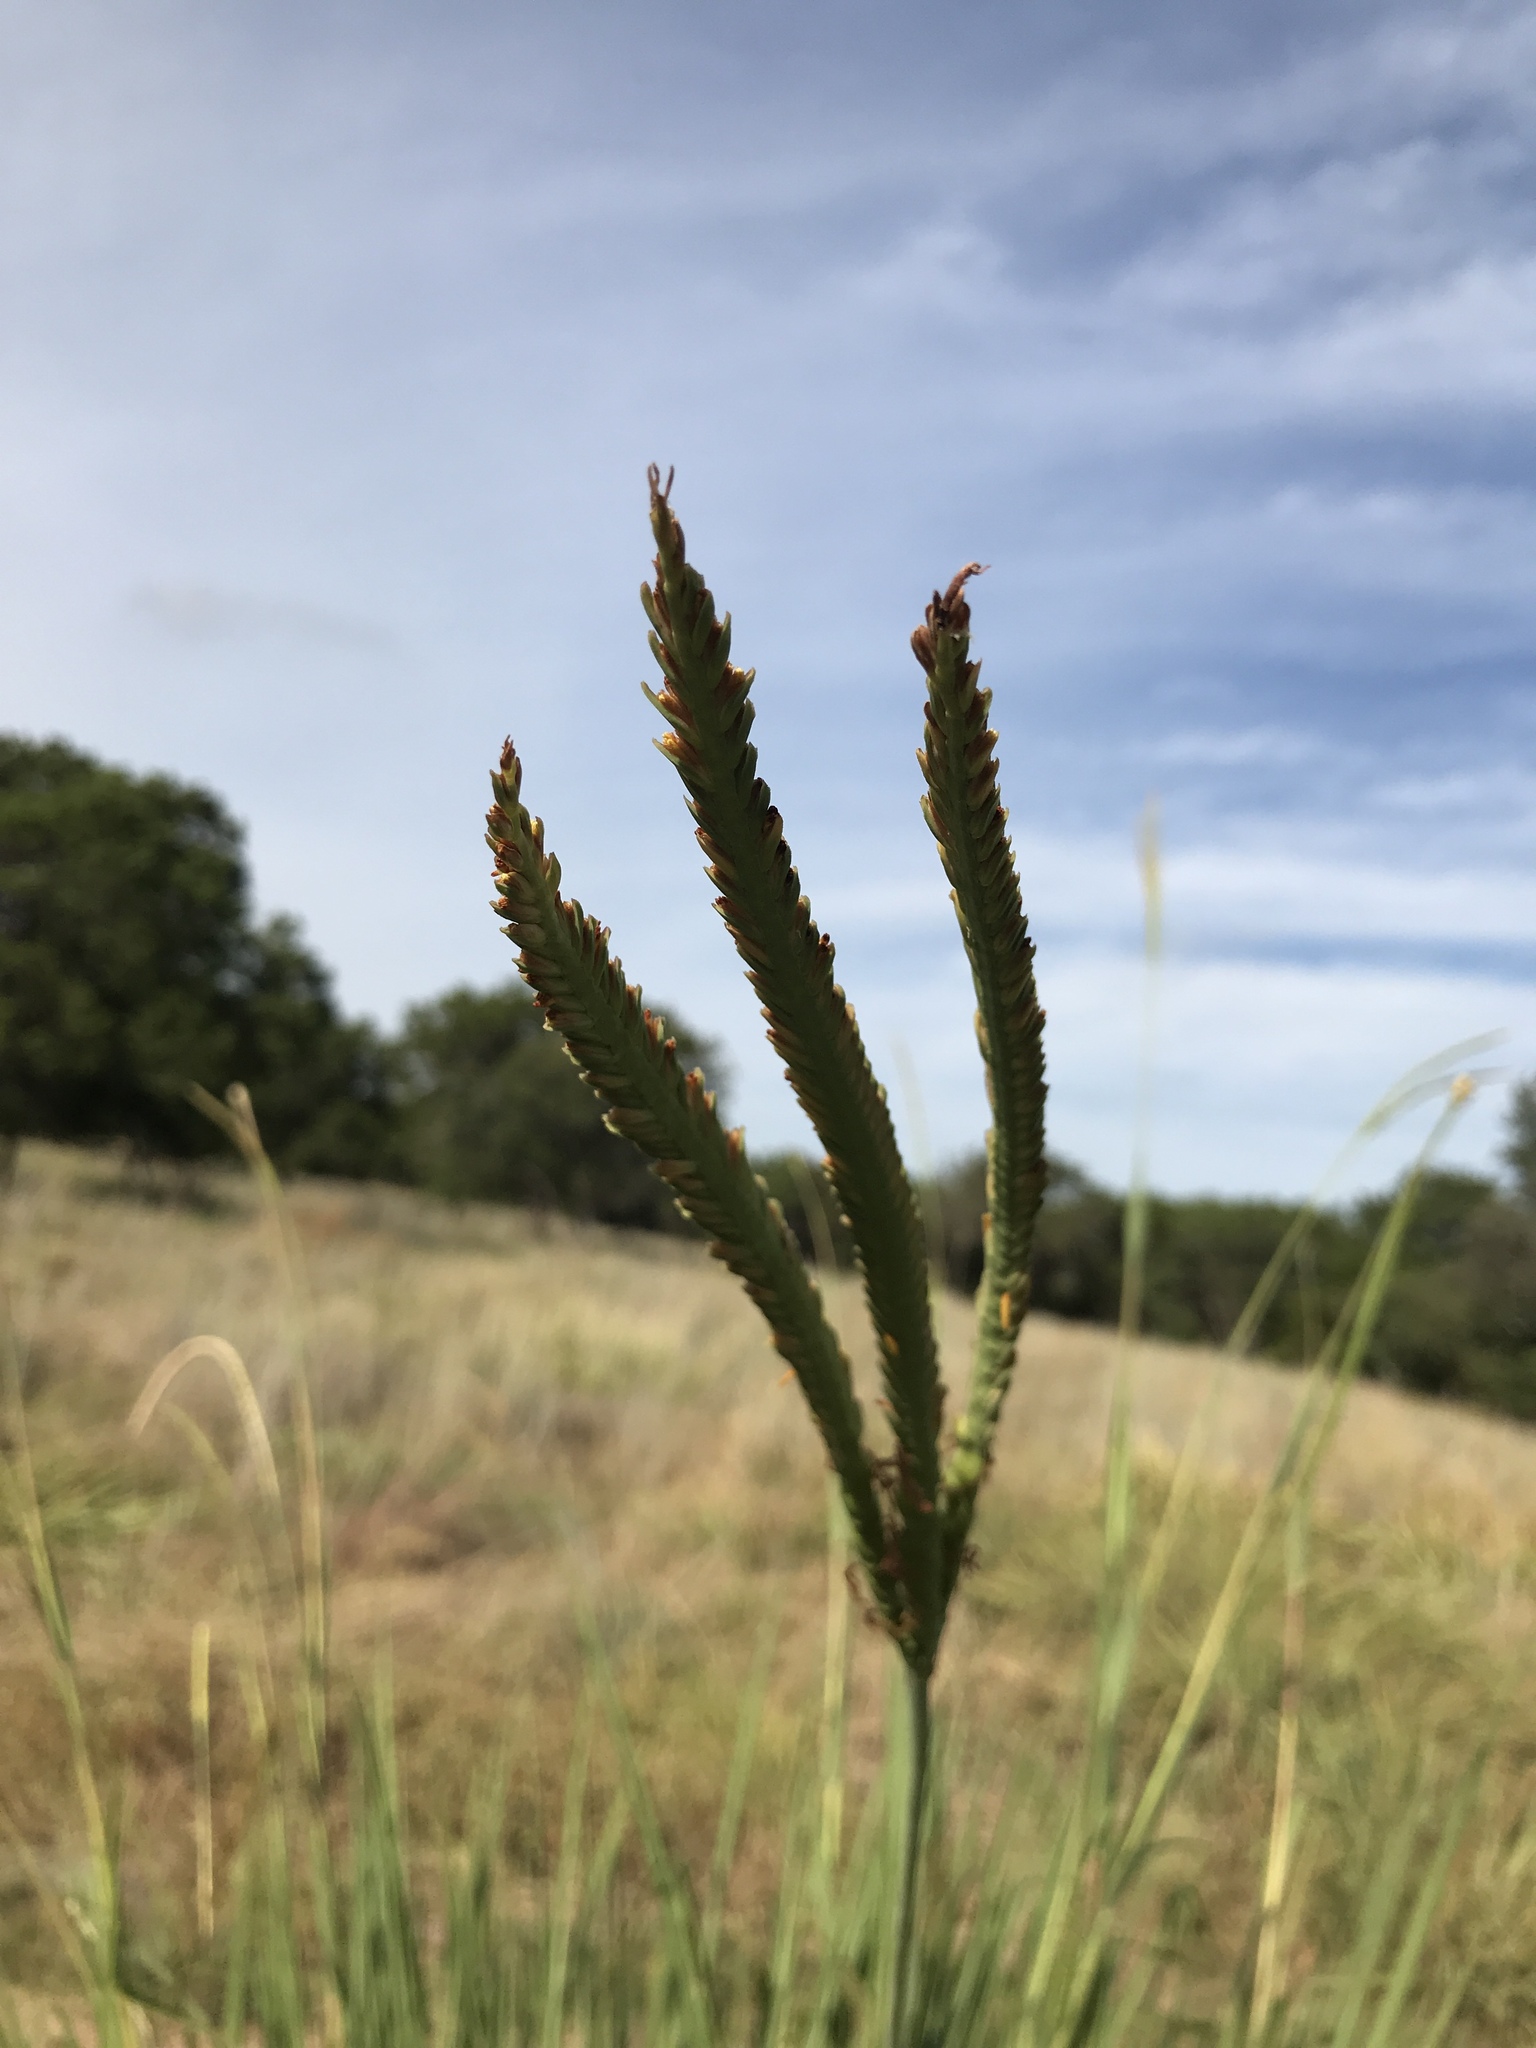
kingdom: Plantae
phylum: Tracheophyta
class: Liliopsida
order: Poales
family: Poaceae
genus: Tripsacum
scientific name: Tripsacum dactyloides
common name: Buffalo-grass
